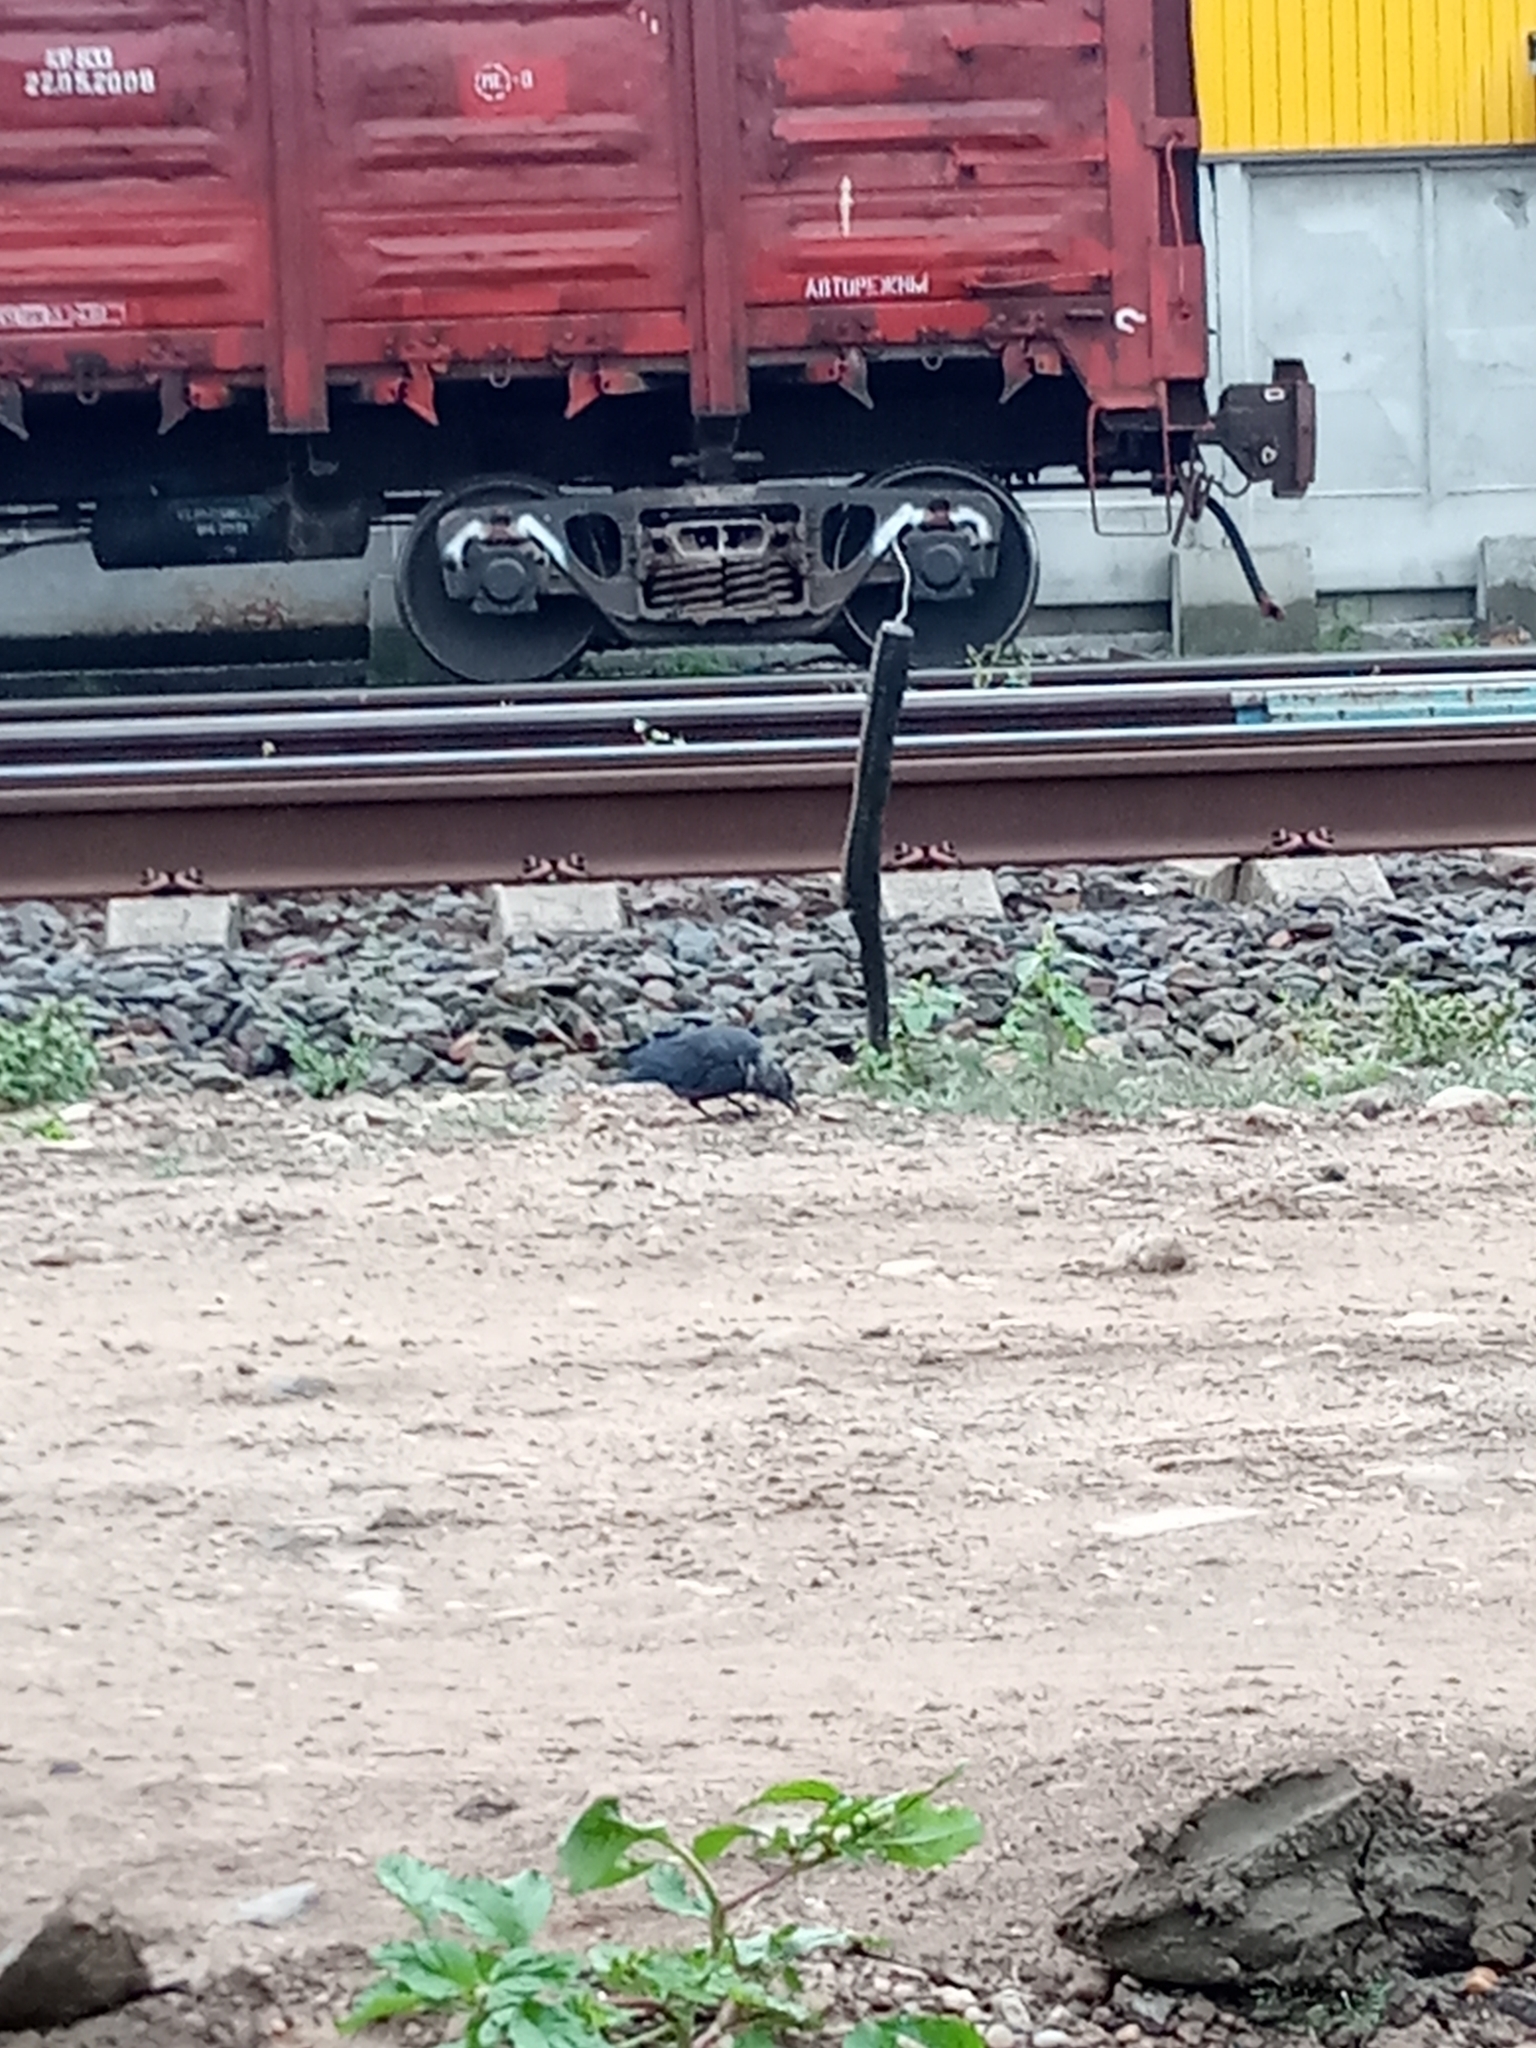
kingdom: Animalia
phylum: Chordata
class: Aves
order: Passeriformes
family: Corvidae
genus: Coloeus
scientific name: Coloeus monedula
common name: Western jackdaw
